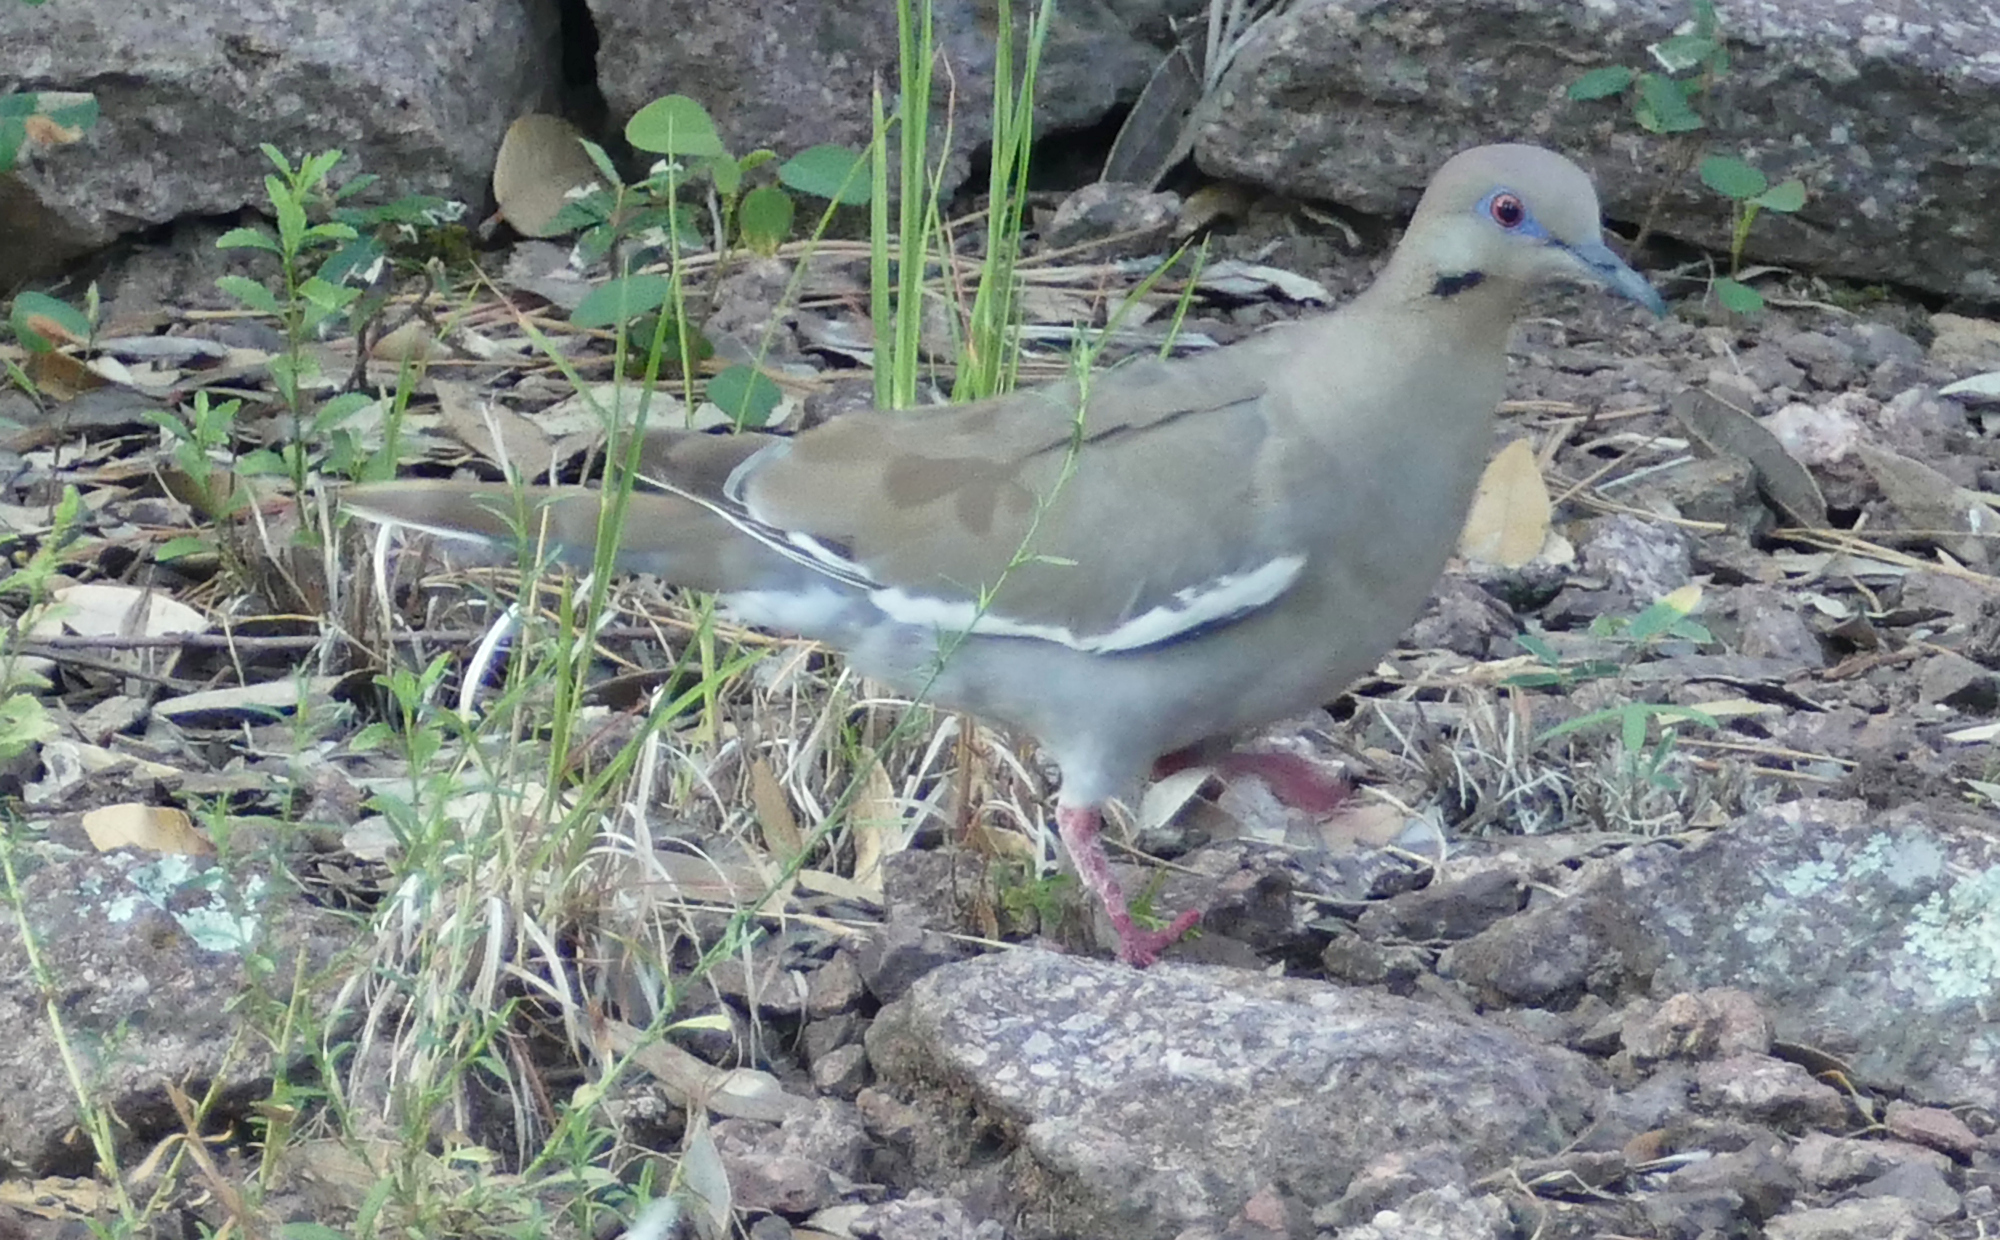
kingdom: Animalia
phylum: Chordata
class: Aves
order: Columbiformes
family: Columbidae
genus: Zenaida
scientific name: Zenaida asiatica
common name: White-winged dove
